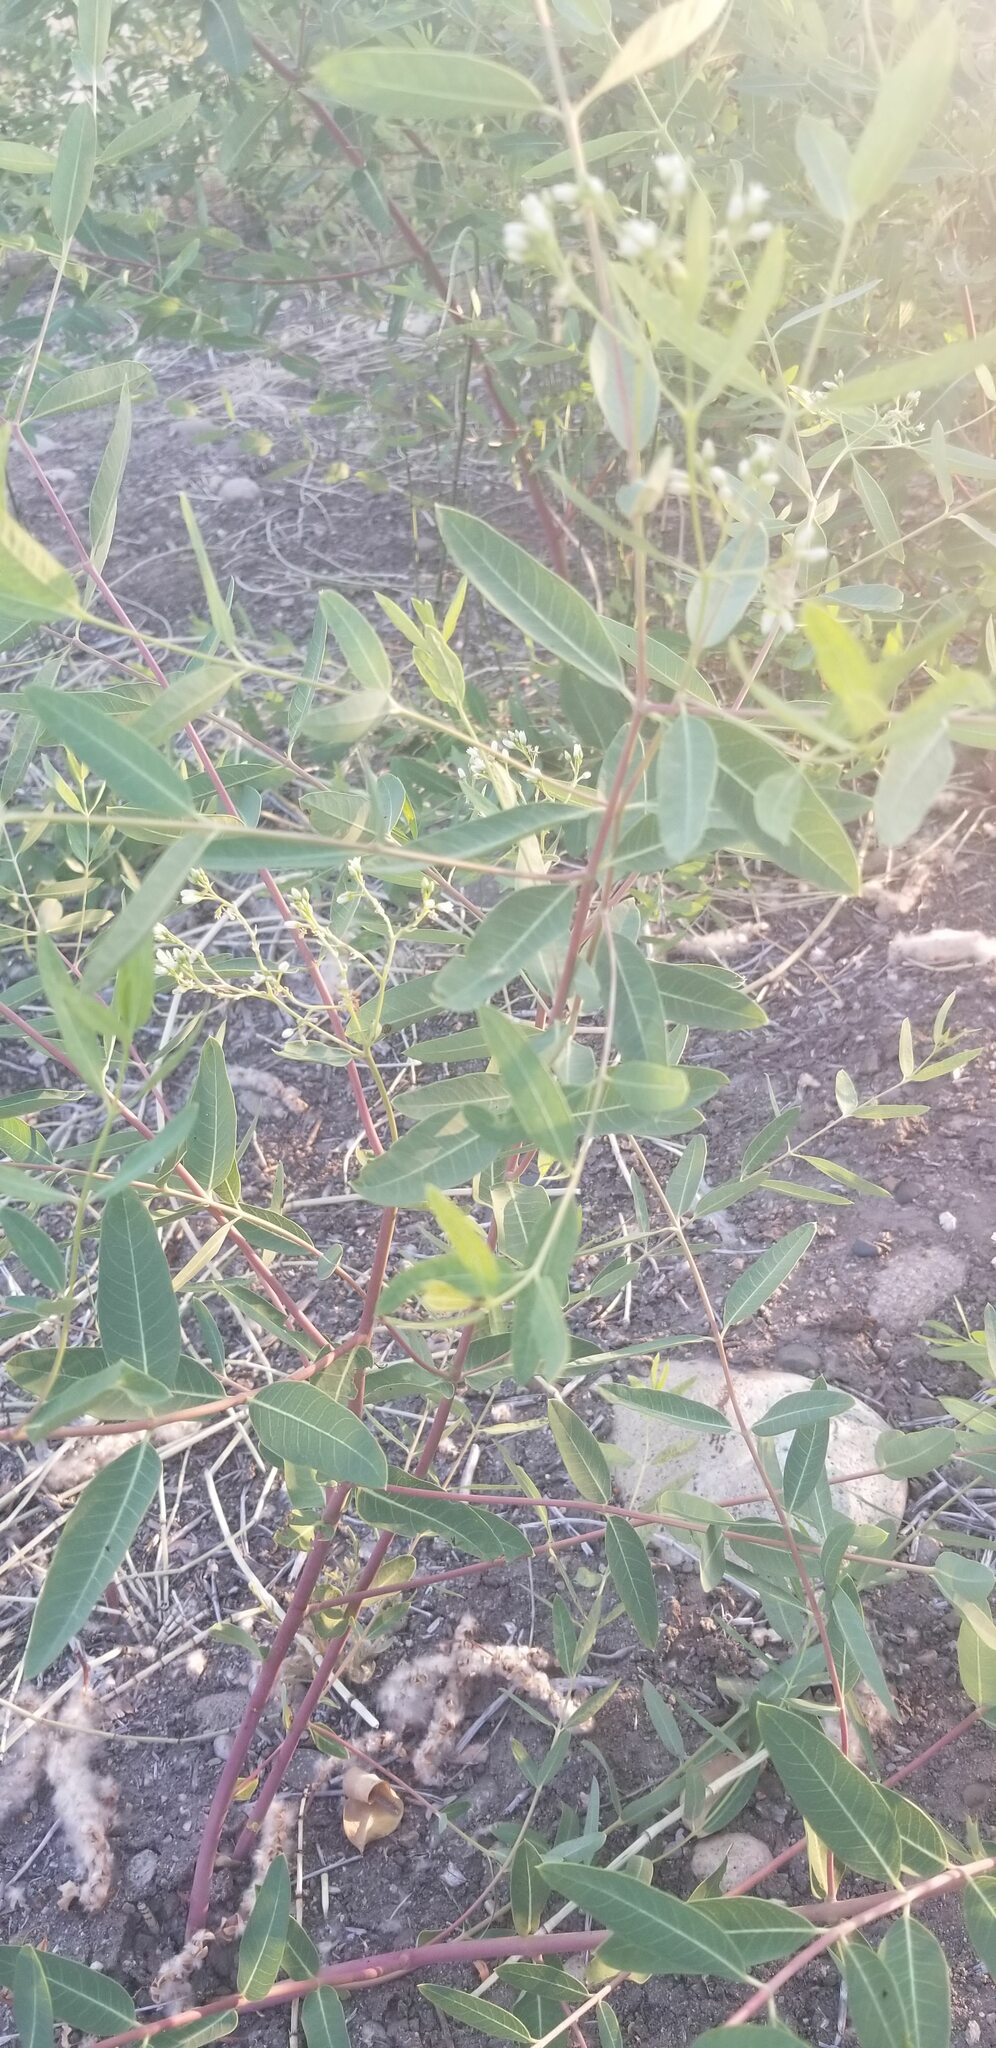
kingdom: Plantae
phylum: Tracheophyta
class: Magnoliopsida
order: Gentianales
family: Apocynaceae
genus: Apocynum
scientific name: Apocynum cannabinum
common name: Hemp dogbane
